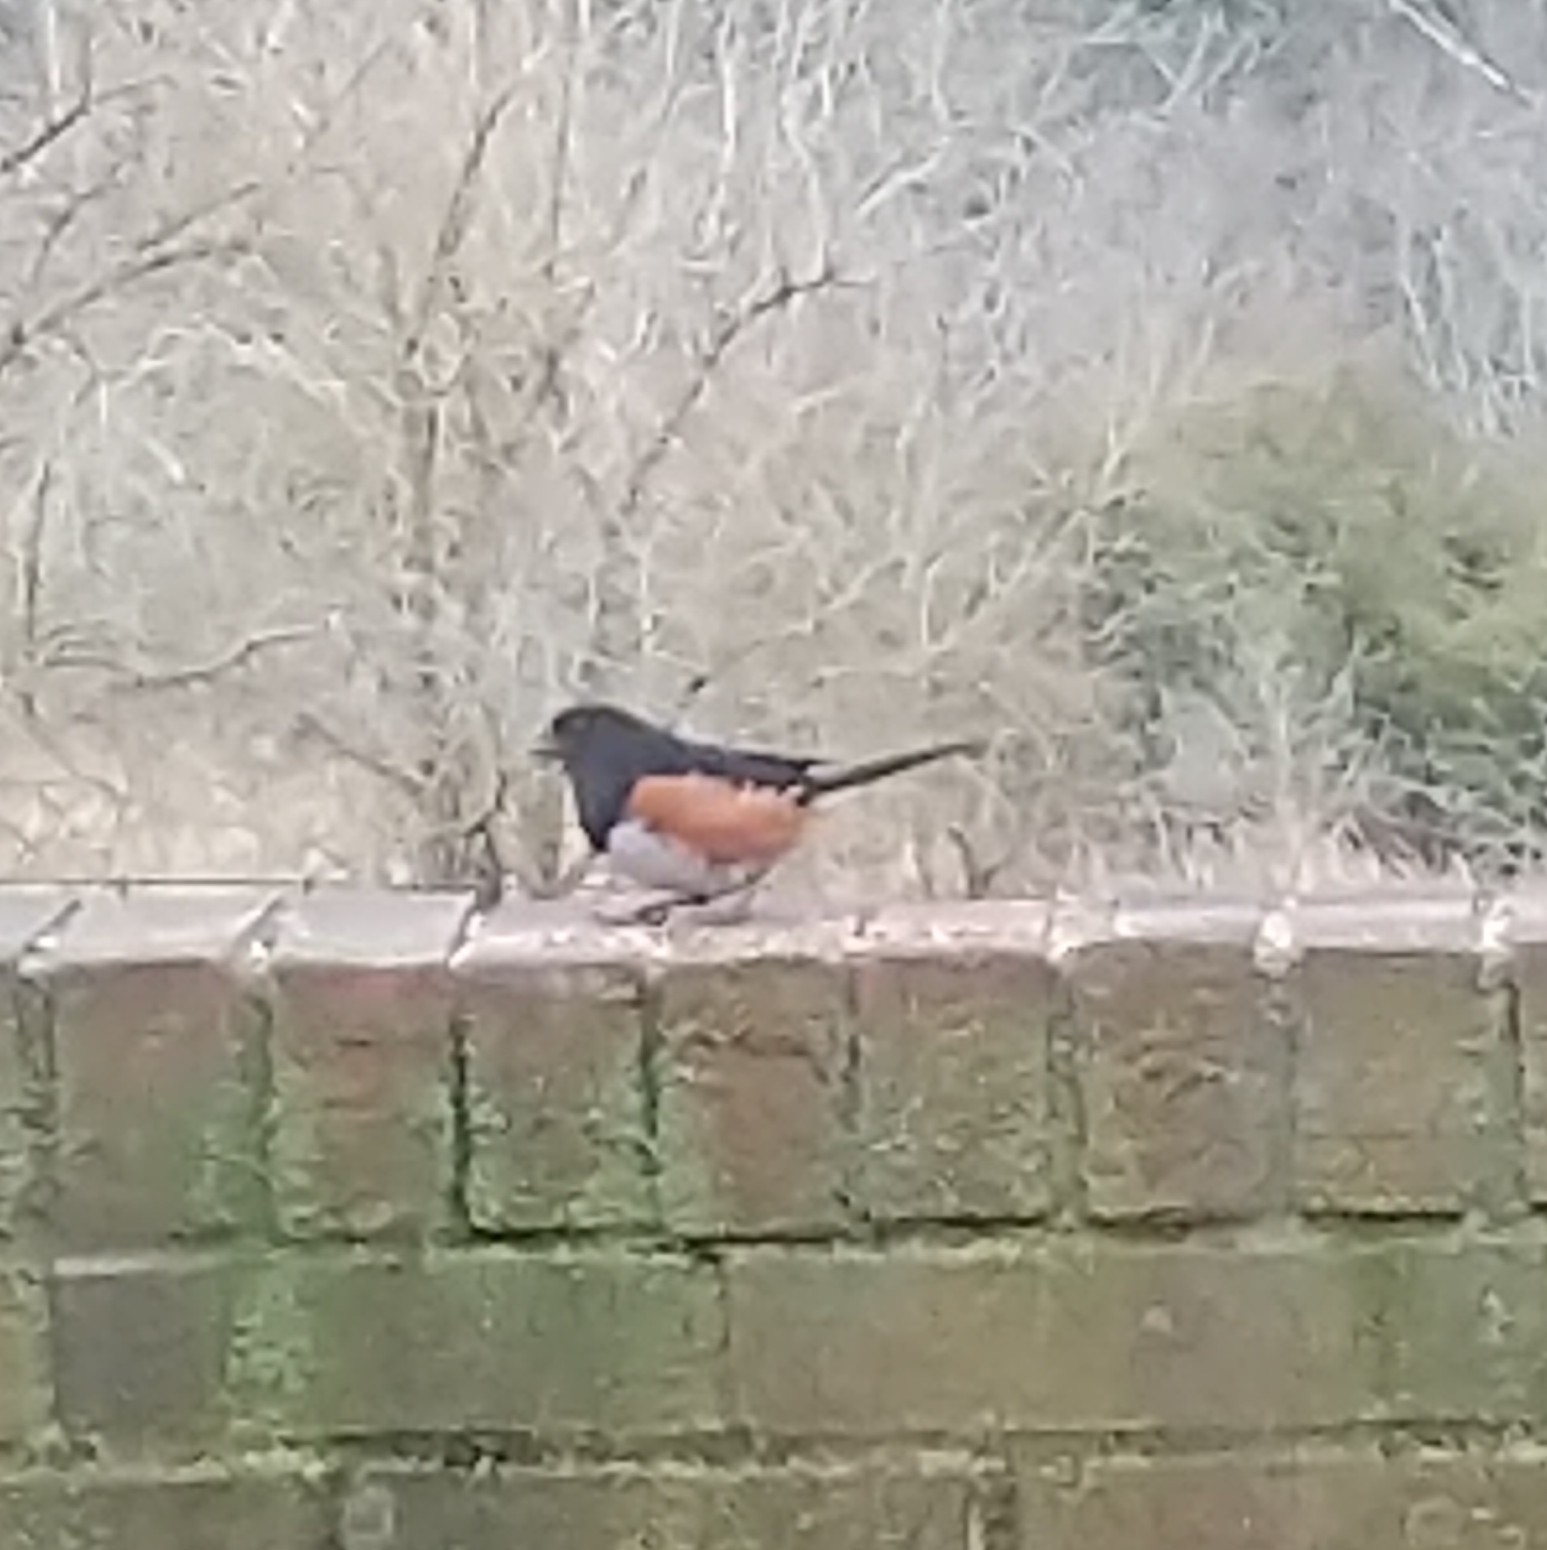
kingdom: Animalia
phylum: Chordata
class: Aves
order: Passeriformes
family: Passerellidae
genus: Pipilo
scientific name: Pipilo erythrophthalmus
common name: Eastern towhee
